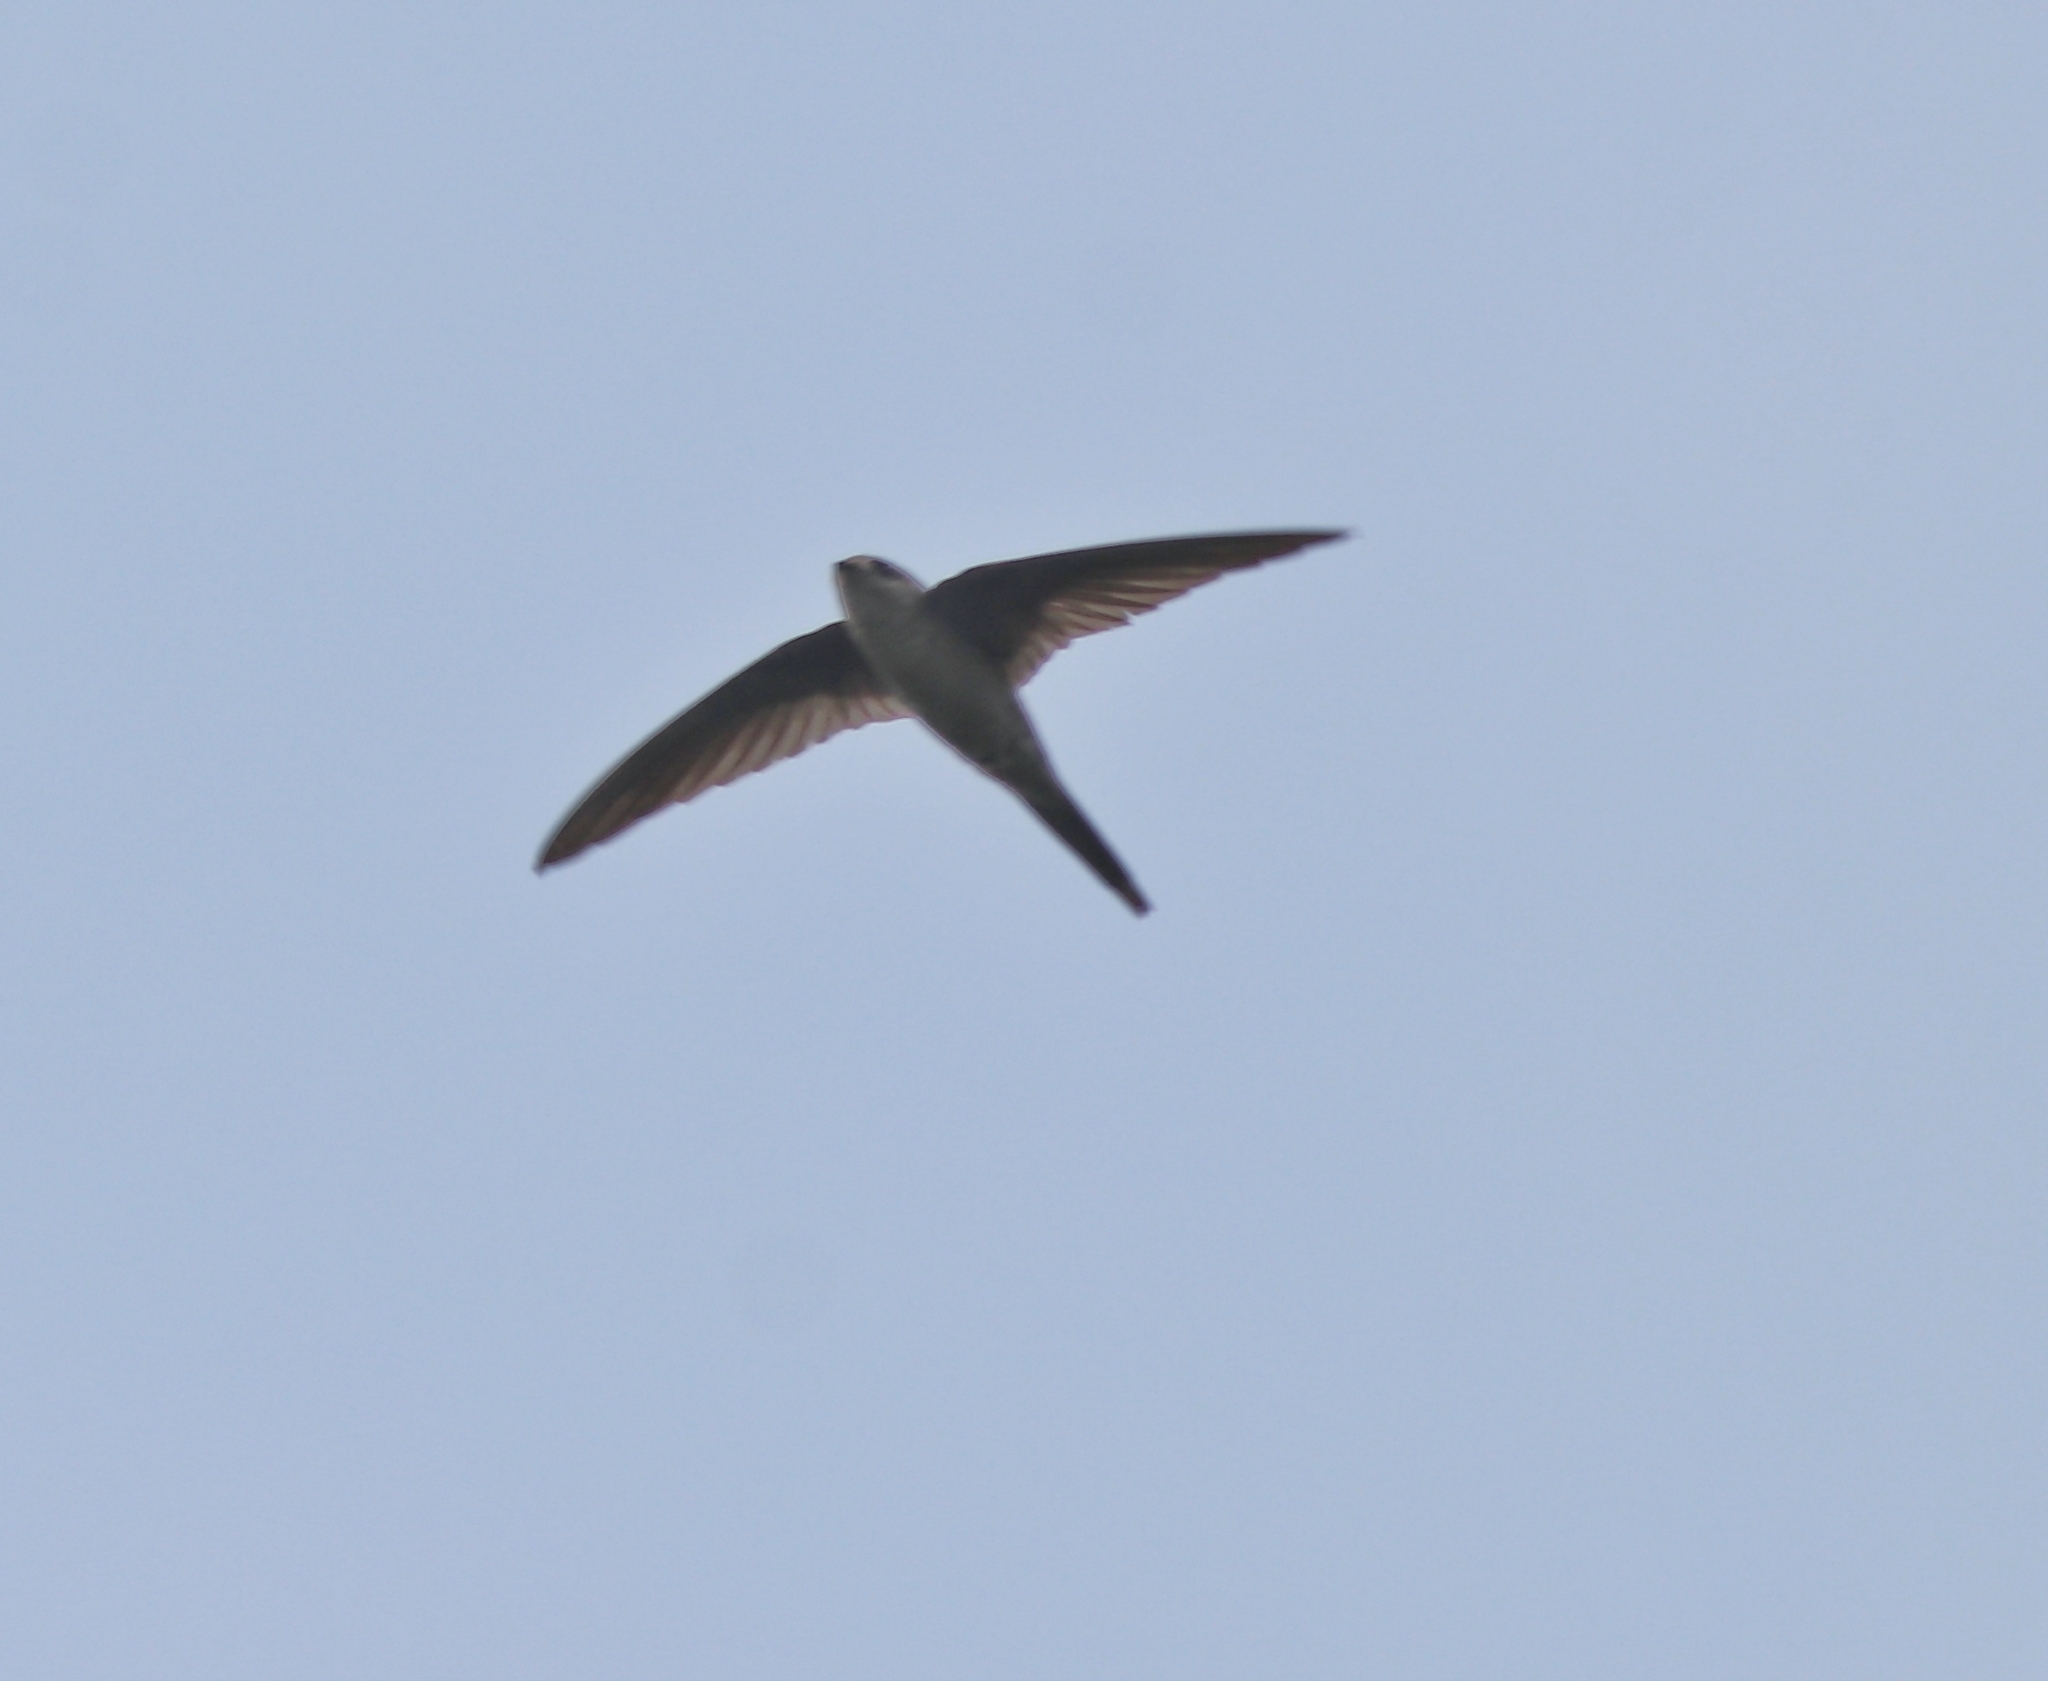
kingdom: Animalia
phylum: Chordata
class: Aves
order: Apodiformes
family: Apodidae
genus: Cypsiurus
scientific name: Cypsiurus balasiensis
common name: Asian palm swift
